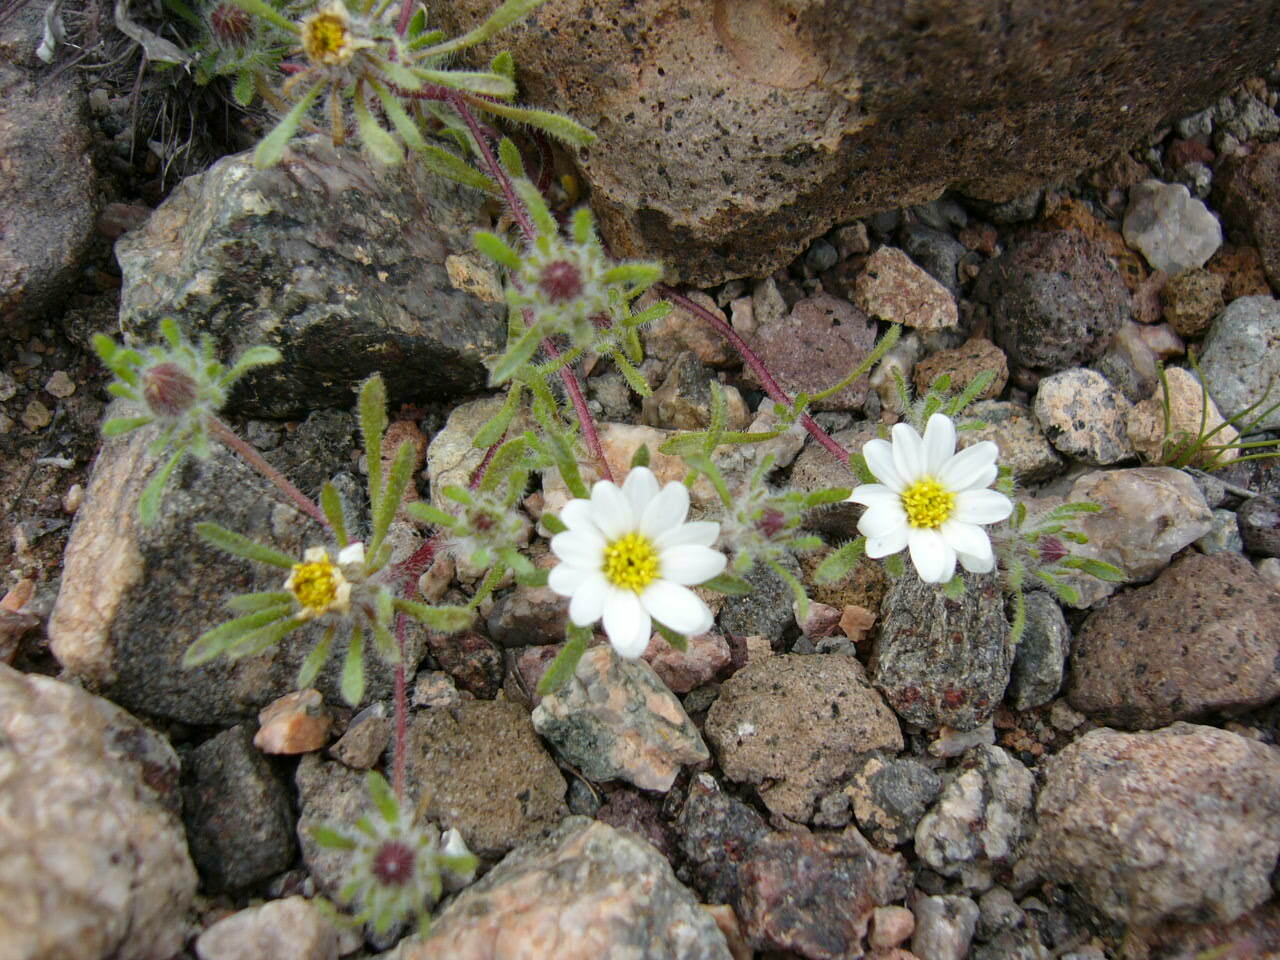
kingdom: Plantae
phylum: Tracheophyta
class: Magnoliopsida
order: Asterales
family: Asteraceae
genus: Monoptilon
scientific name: Monoptilon bellioides
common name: Bristly desertstar
